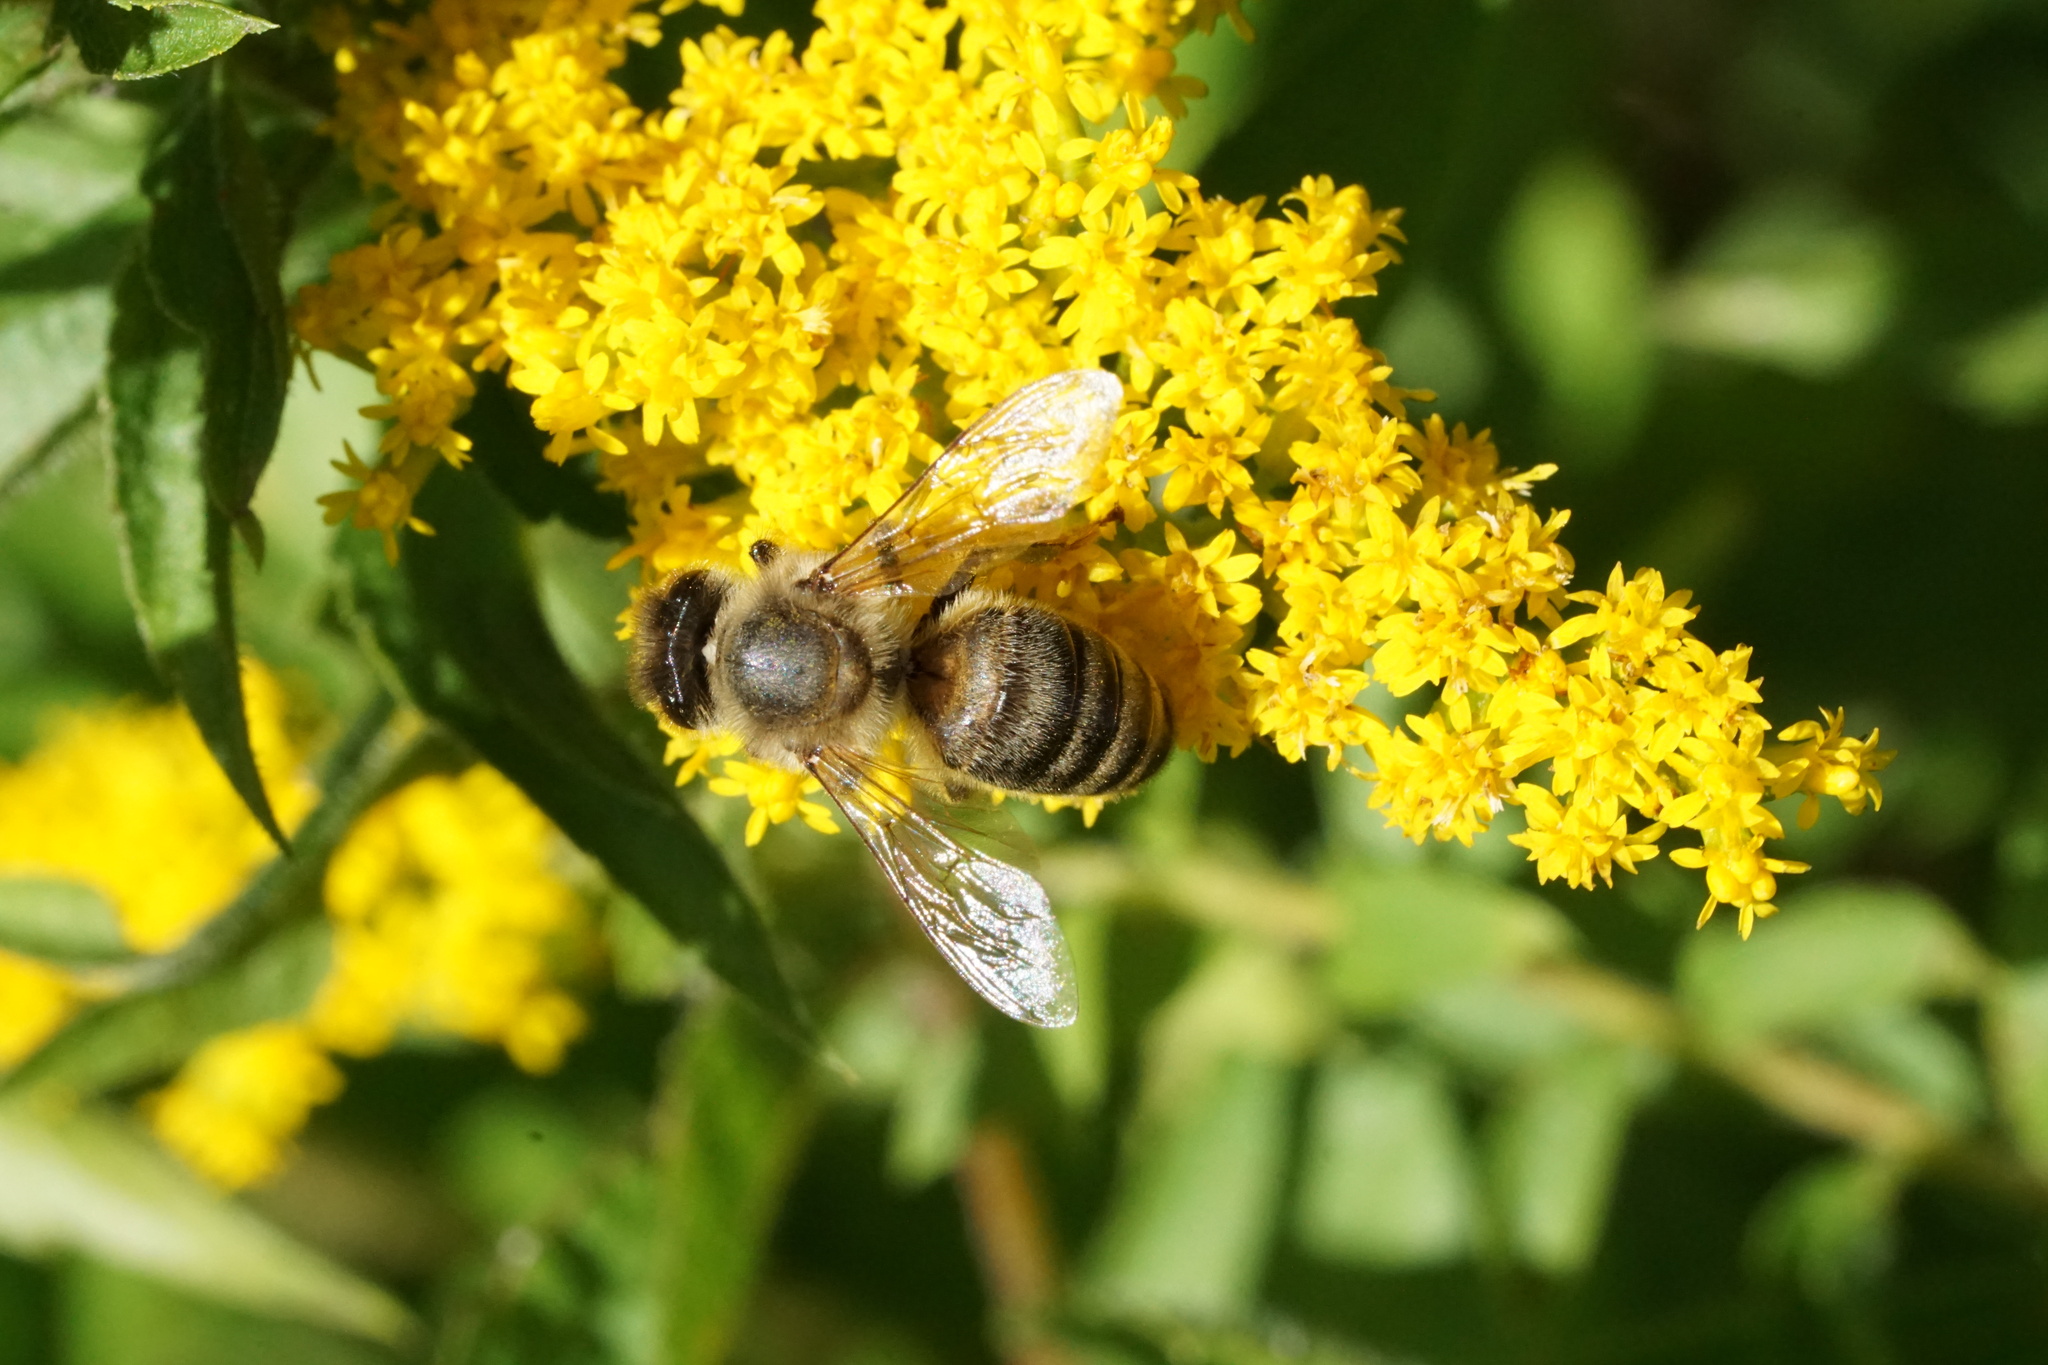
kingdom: Animalia
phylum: Arthropoda
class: Insecta
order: Hymenoptera
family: Apidae
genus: Apis
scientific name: Apis mellifera
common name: Honey bee
